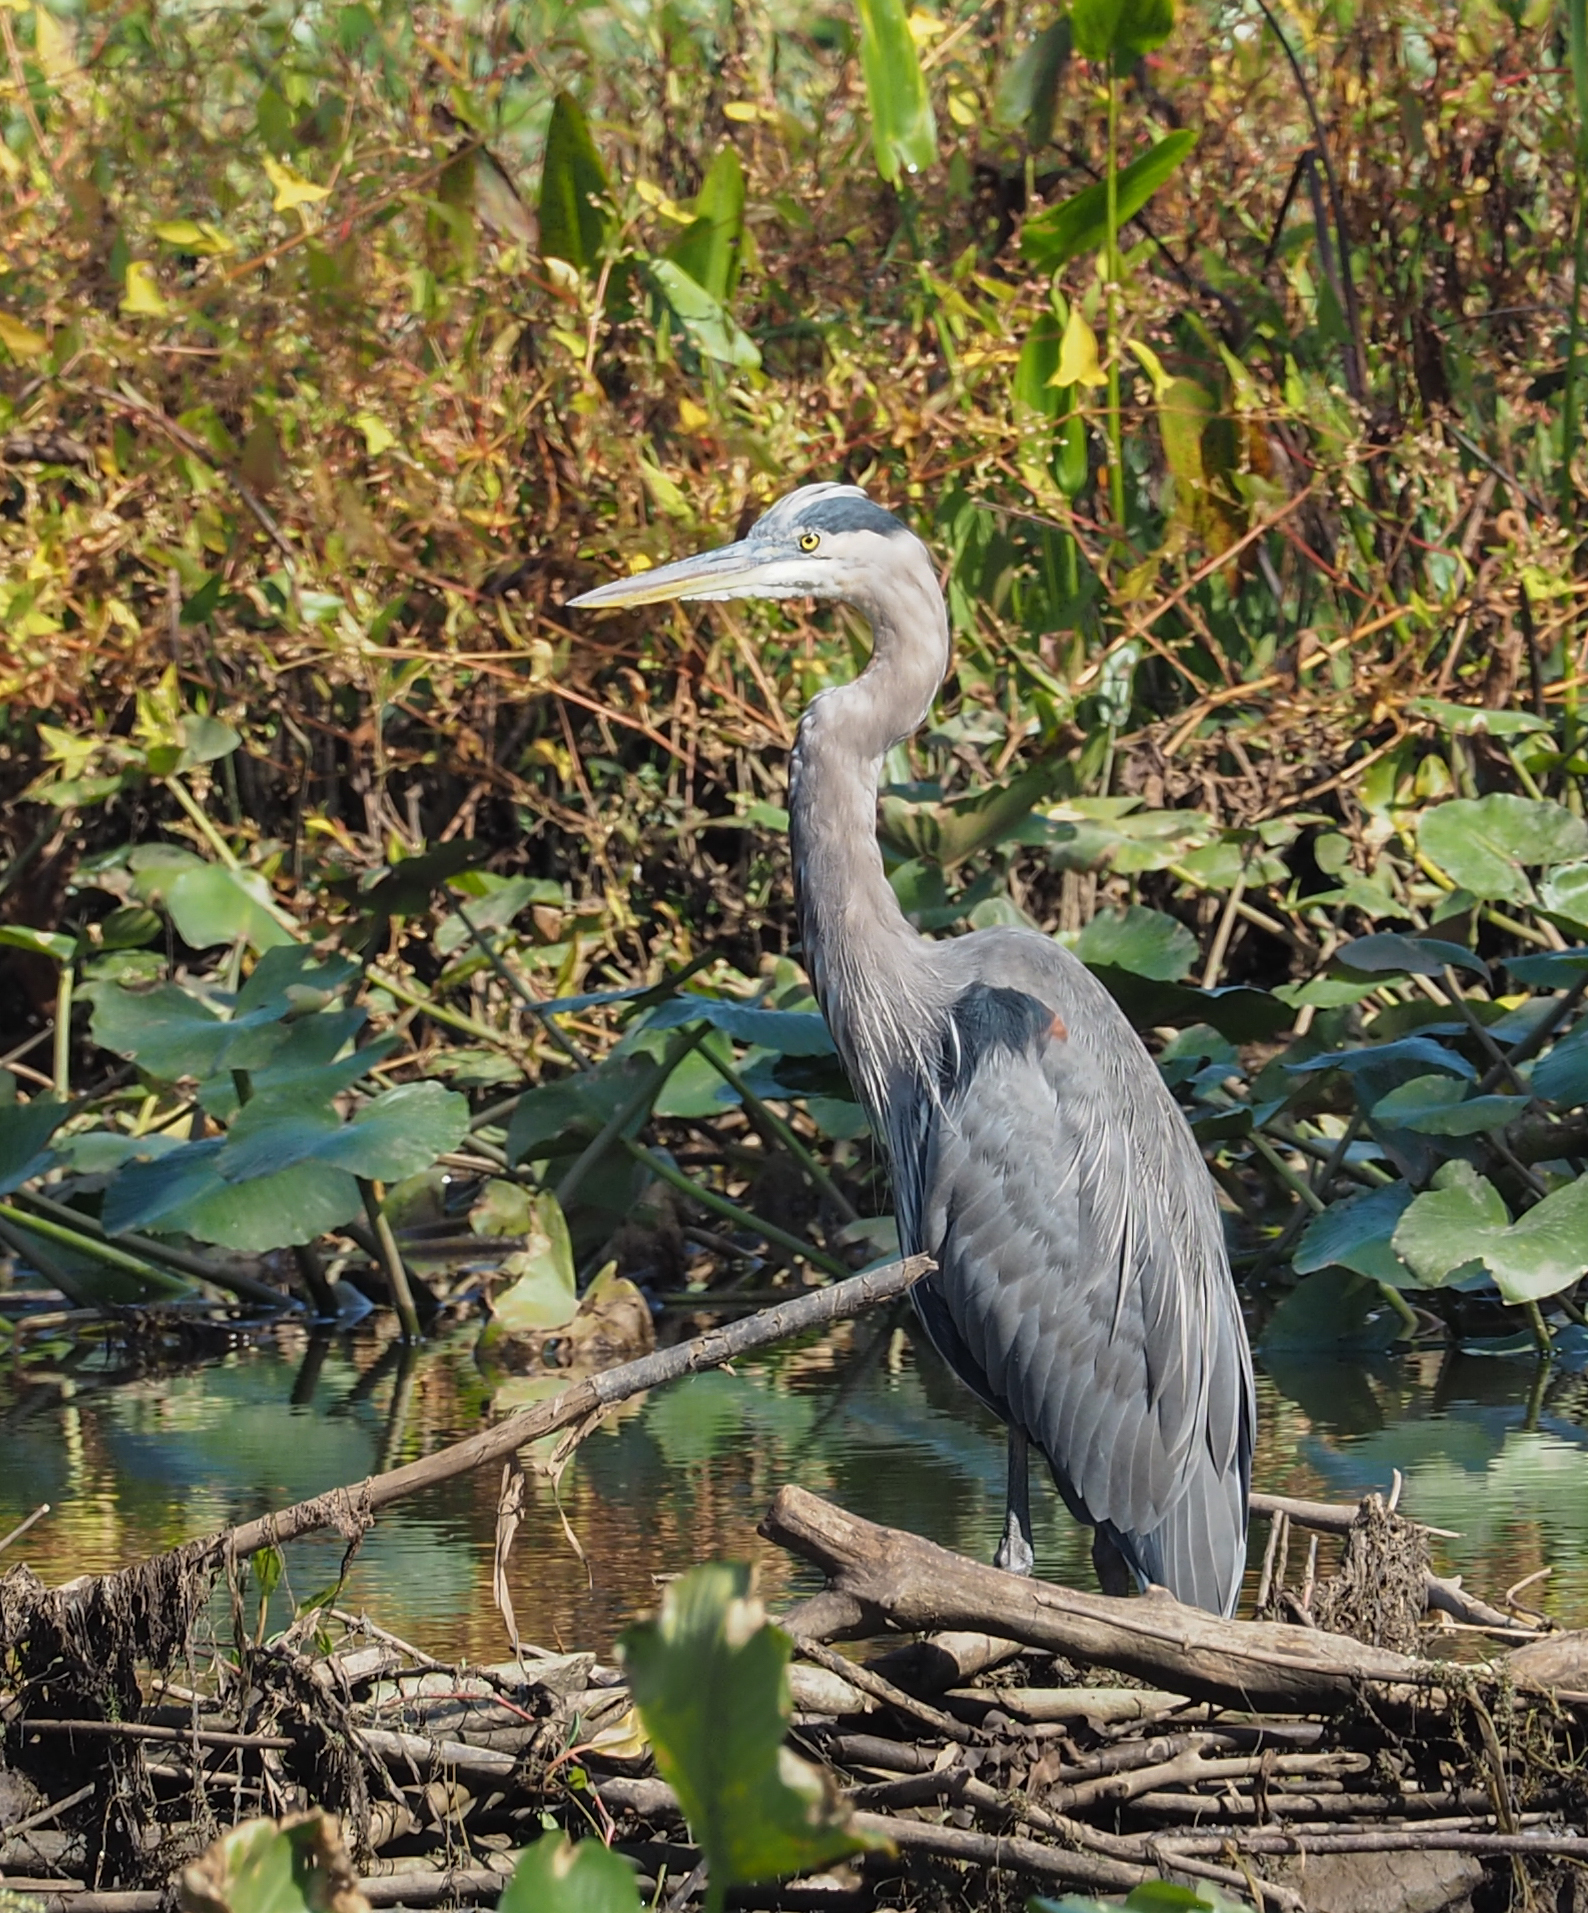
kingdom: Animalia
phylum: Chordata
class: Aves
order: Pelecaniformes
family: Ardeidae
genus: Ardea
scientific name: Ardea herodias
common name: Great blue heron
